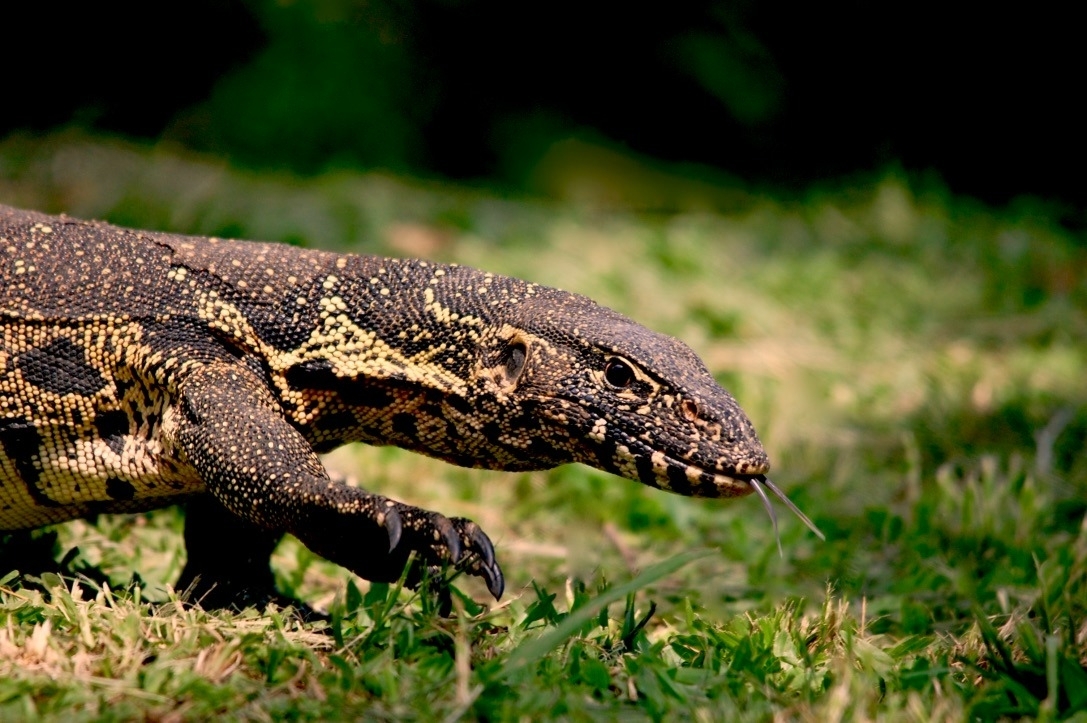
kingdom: Animalia
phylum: Chordata
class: Squamata
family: Varanidae
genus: Varanus
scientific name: Varanus niloticus
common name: Nile monitor
